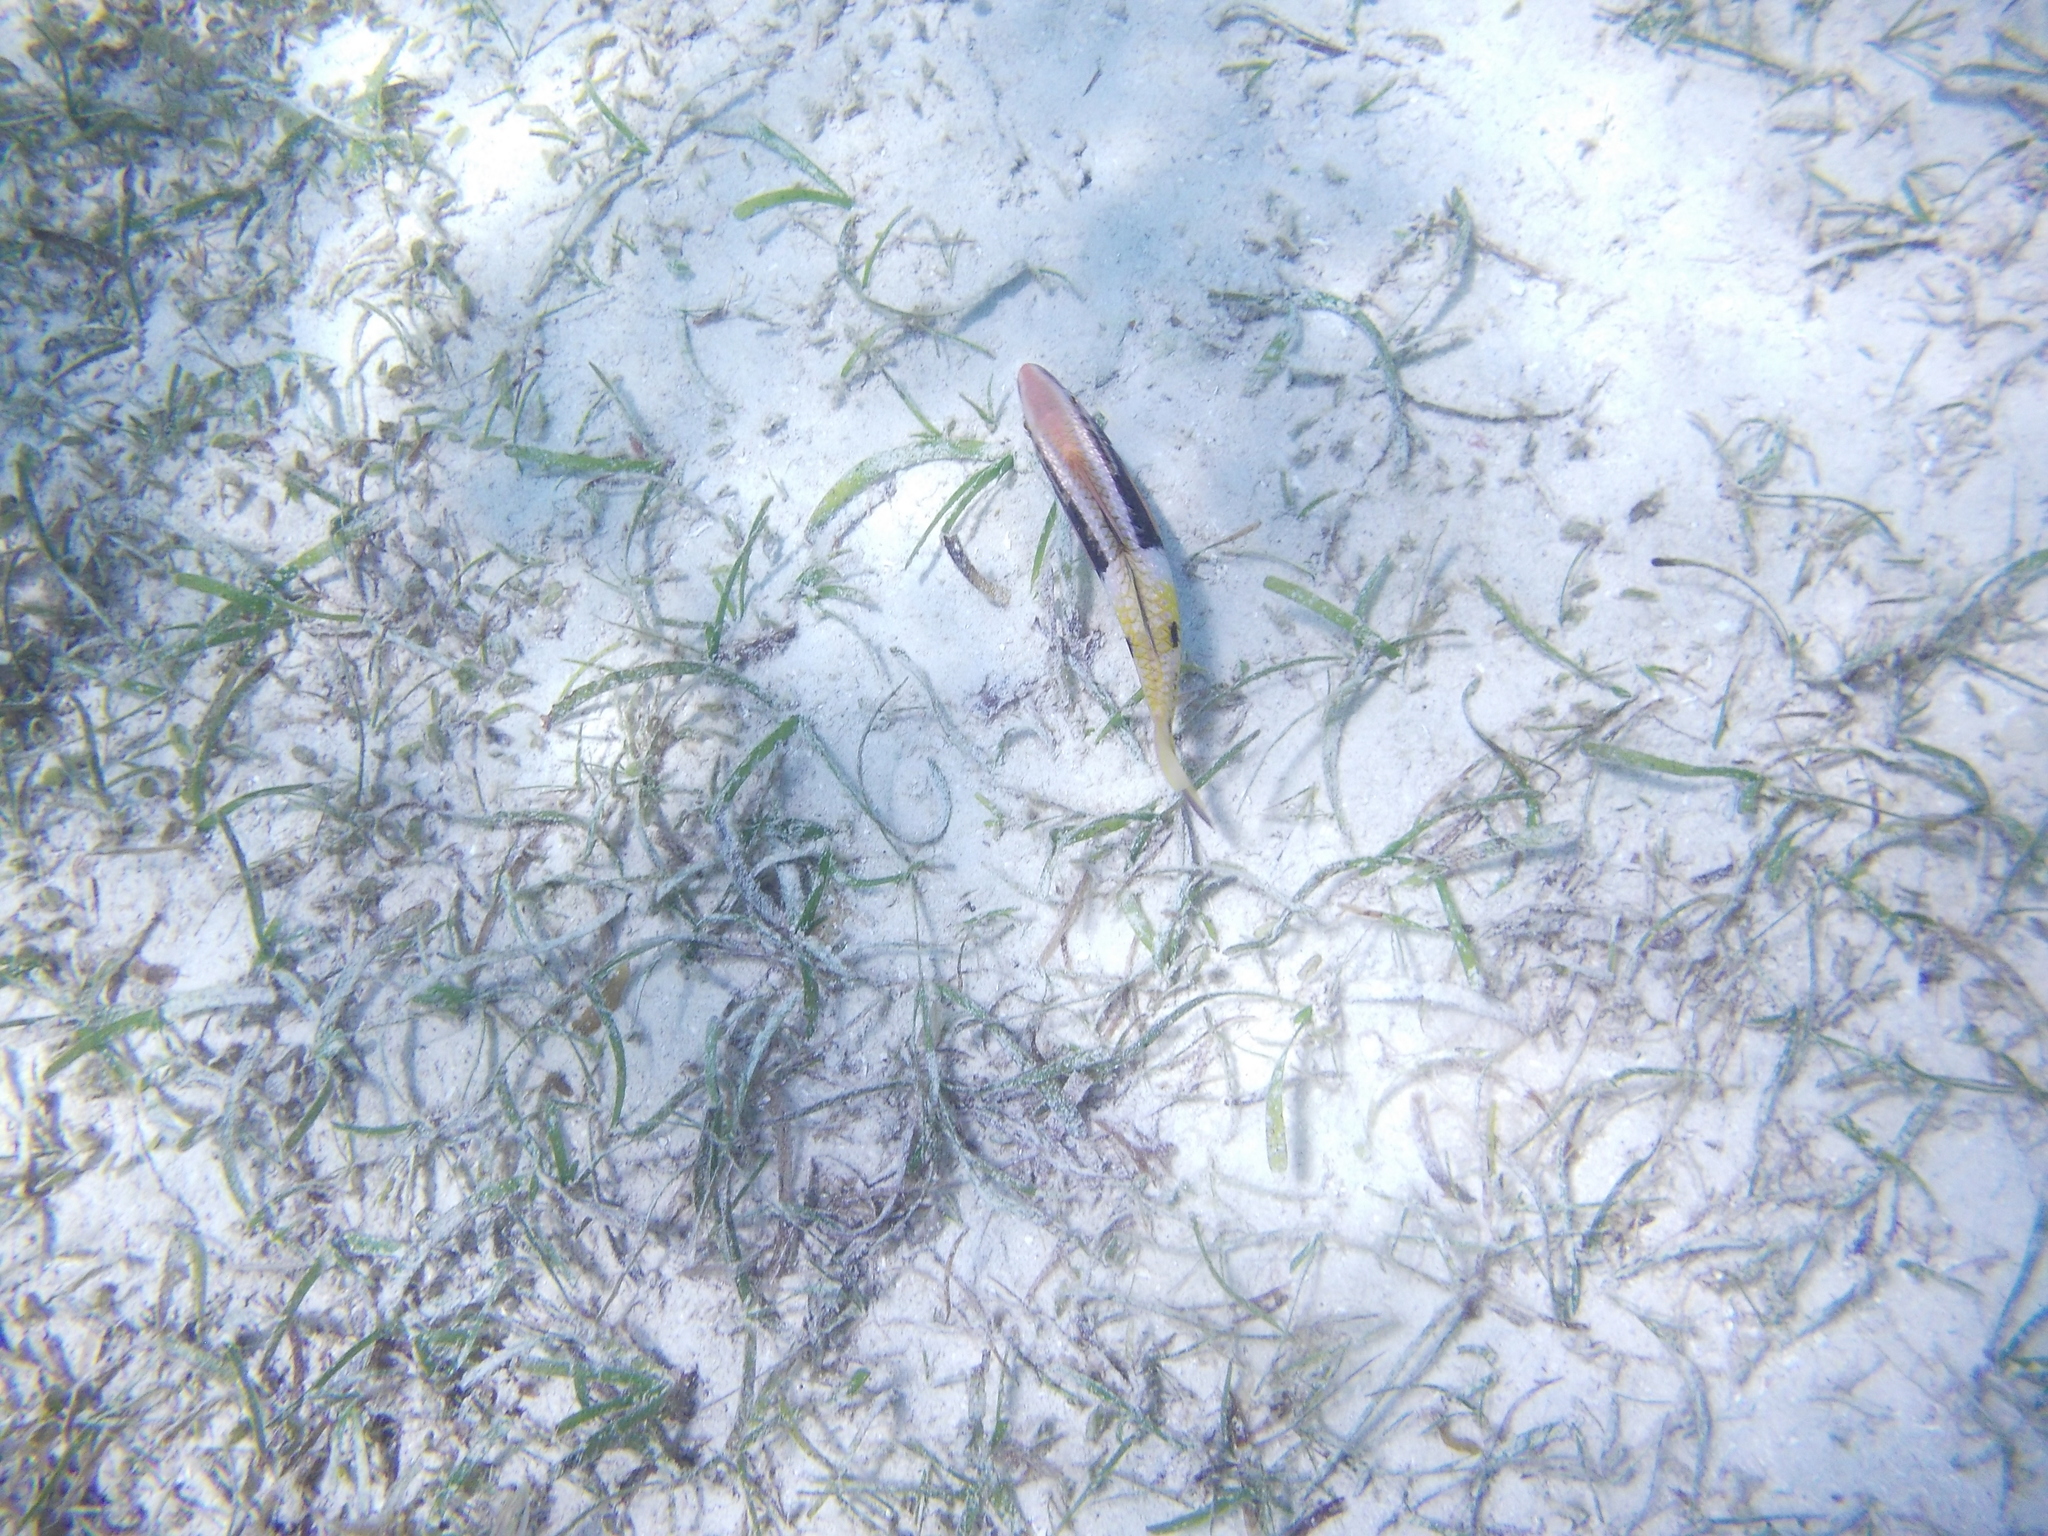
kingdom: Animalia
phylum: Chordata
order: Perciformes
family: Mullidae
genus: Parupeneus
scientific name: Parupeneus barberinoides
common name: Half-and-half goatfish
